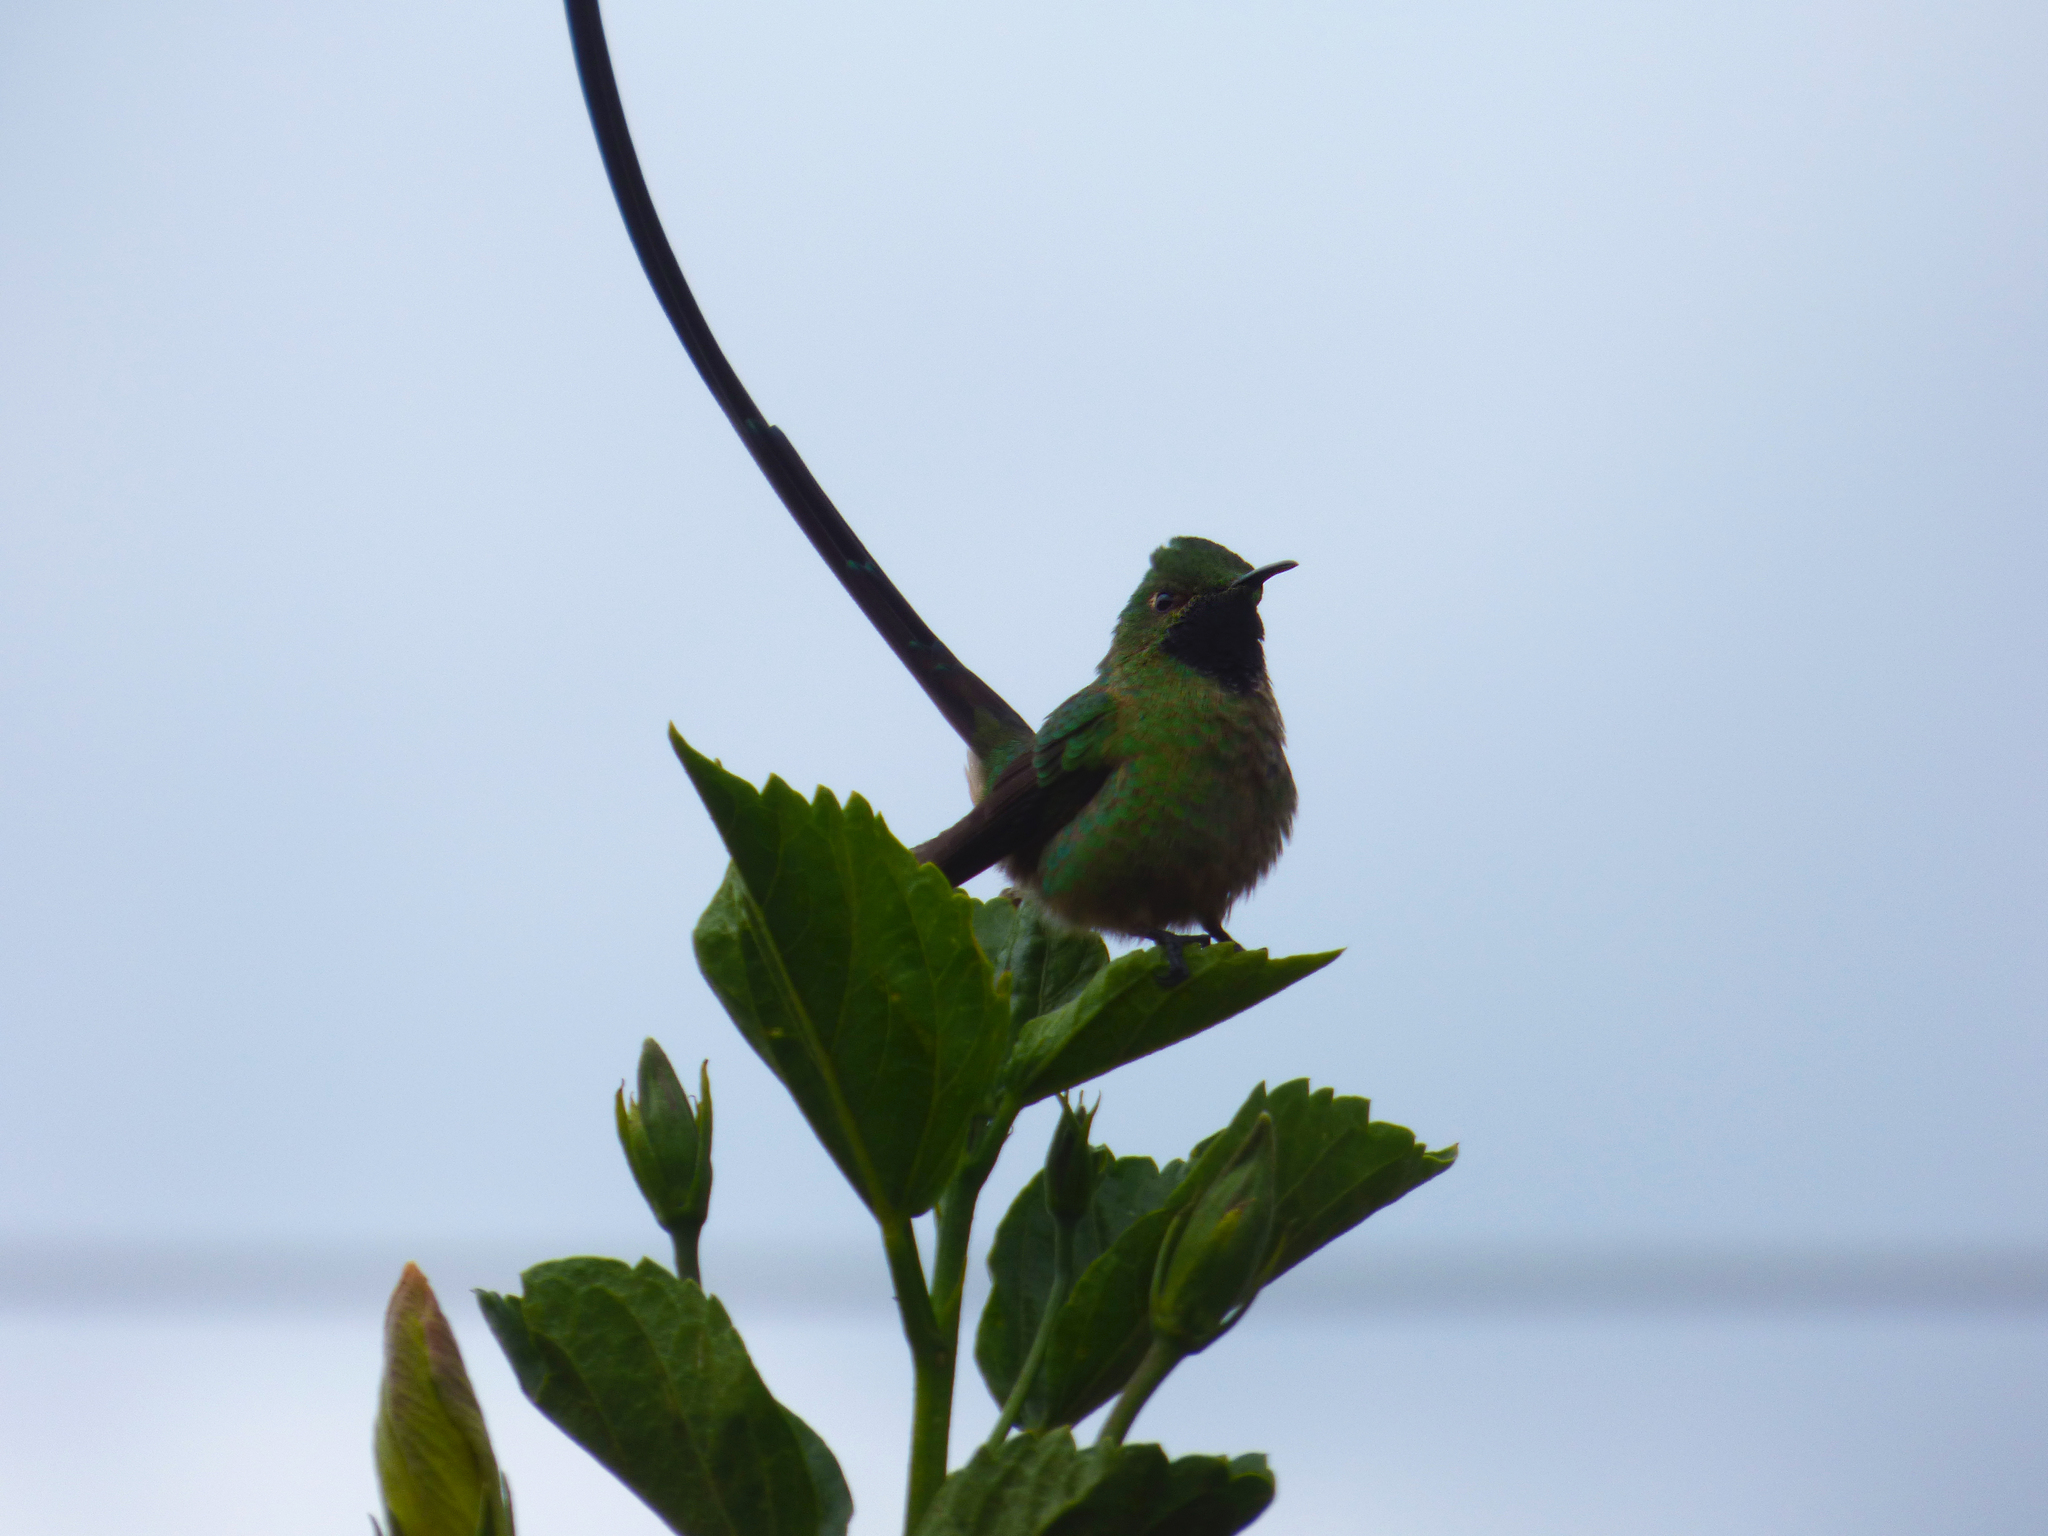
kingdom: Animalia
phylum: Chordata
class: Aves
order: Apodiformes
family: Trochilidae
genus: Lesbia
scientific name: Lesbia victoriae
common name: Black-tailed trainbearer
